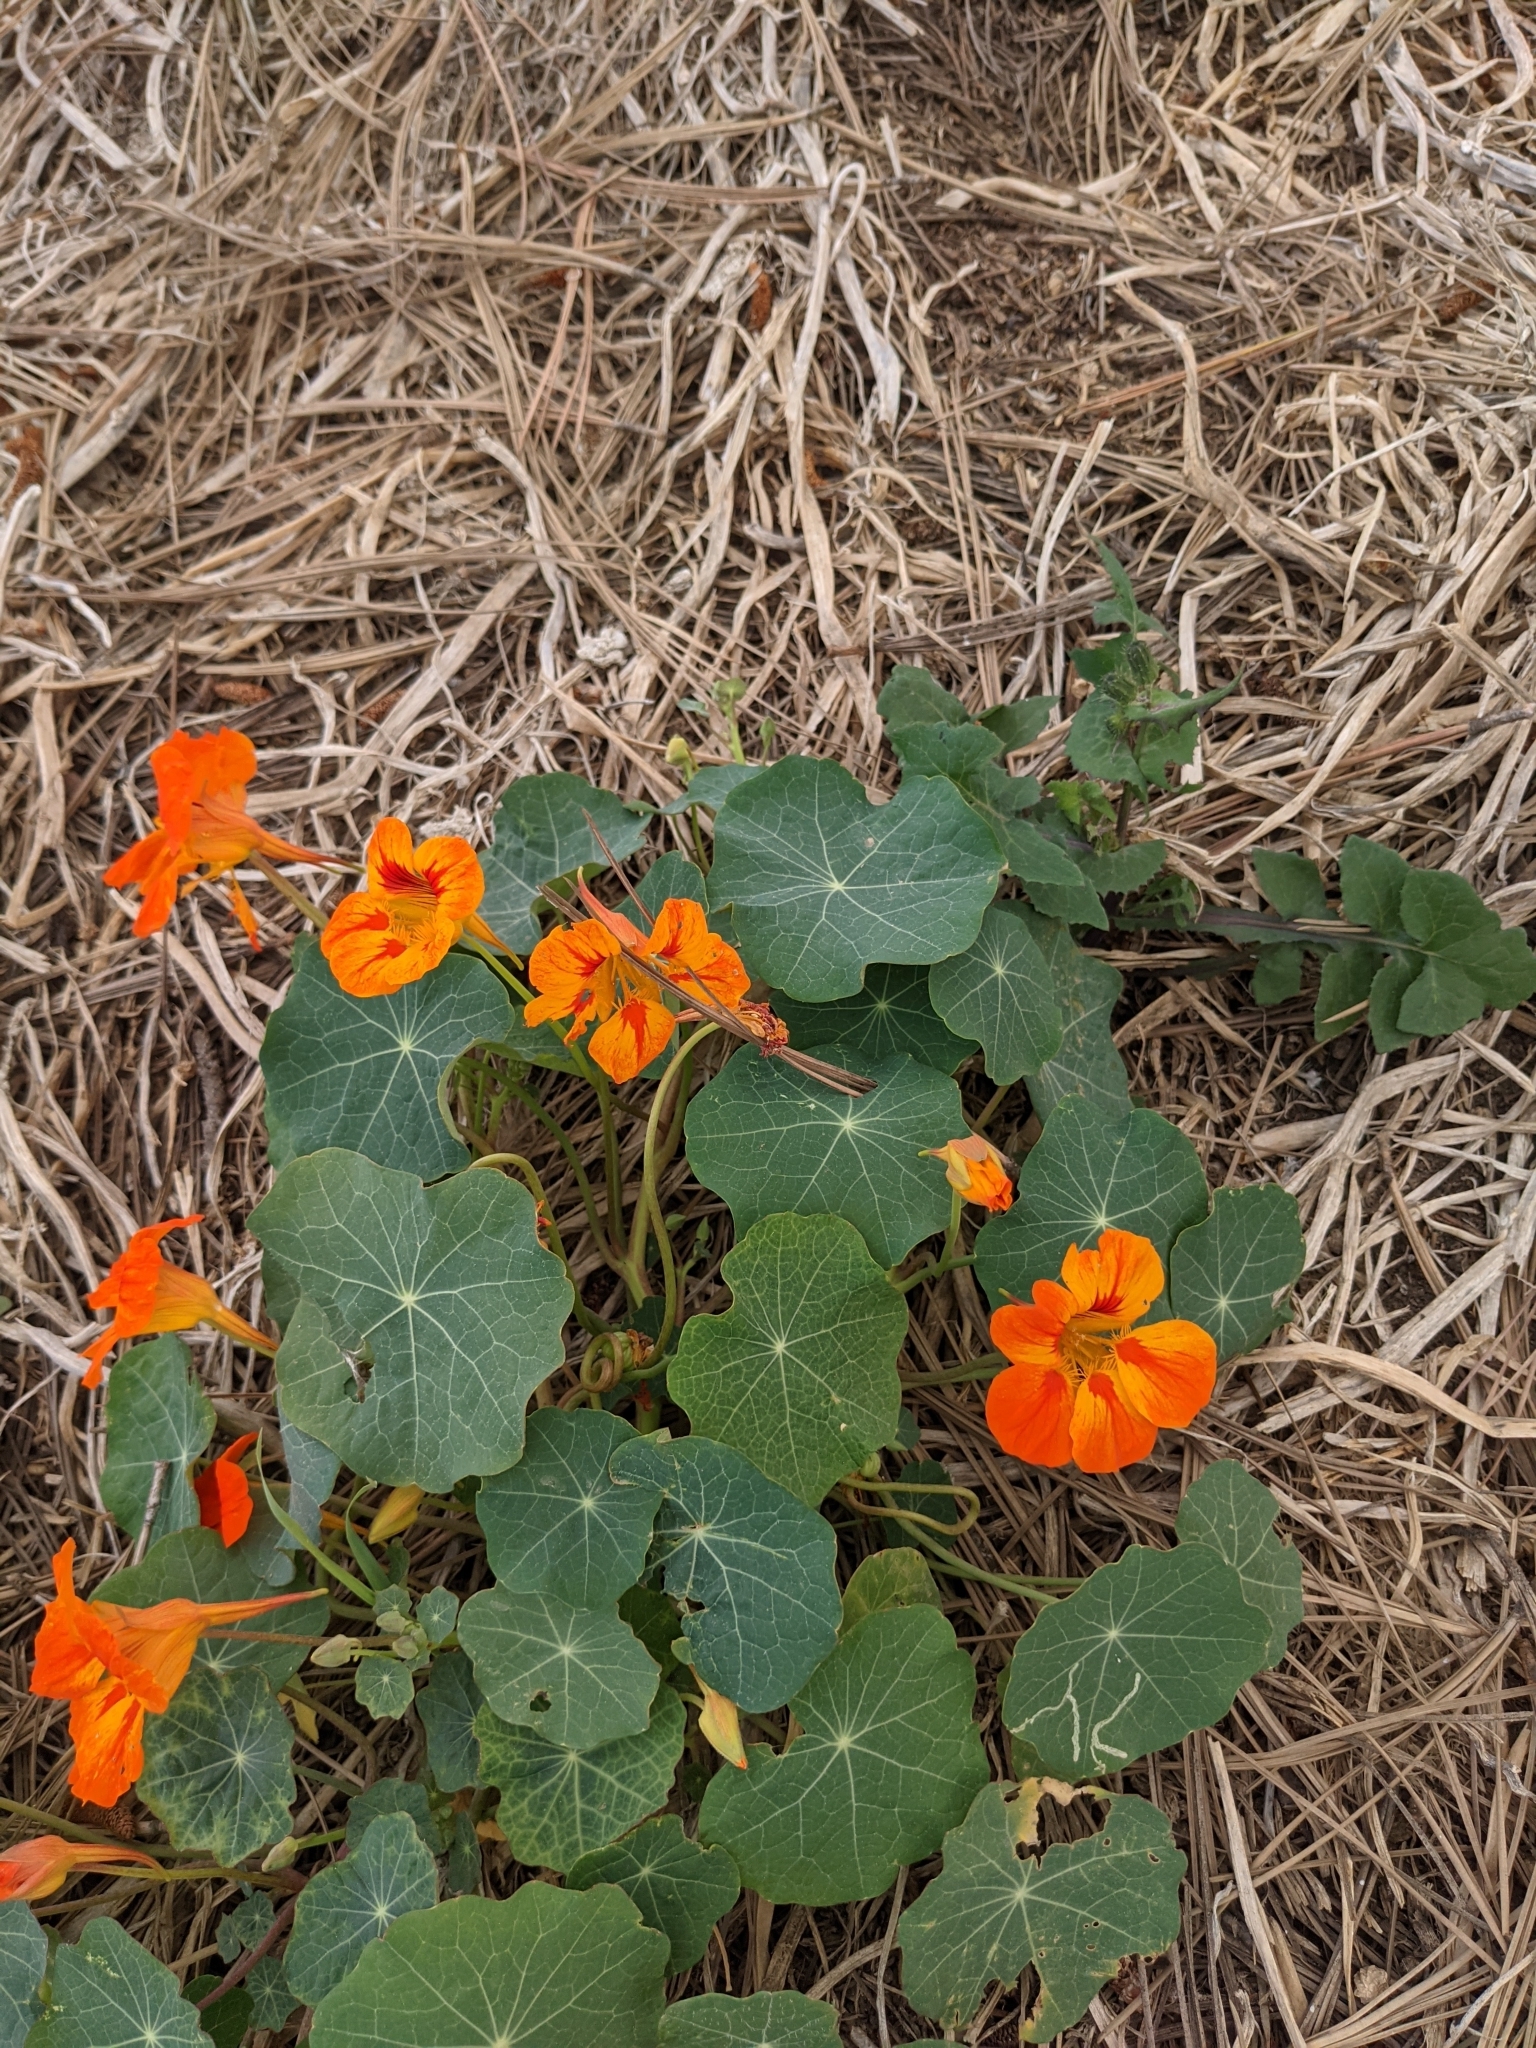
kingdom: Plantae
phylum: Tracheophyta
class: Magnoliopsida
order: Brassicales
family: Tropaeolaceae
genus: Tropaeolum
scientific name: Tropaeolum majus
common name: Nasturtium
